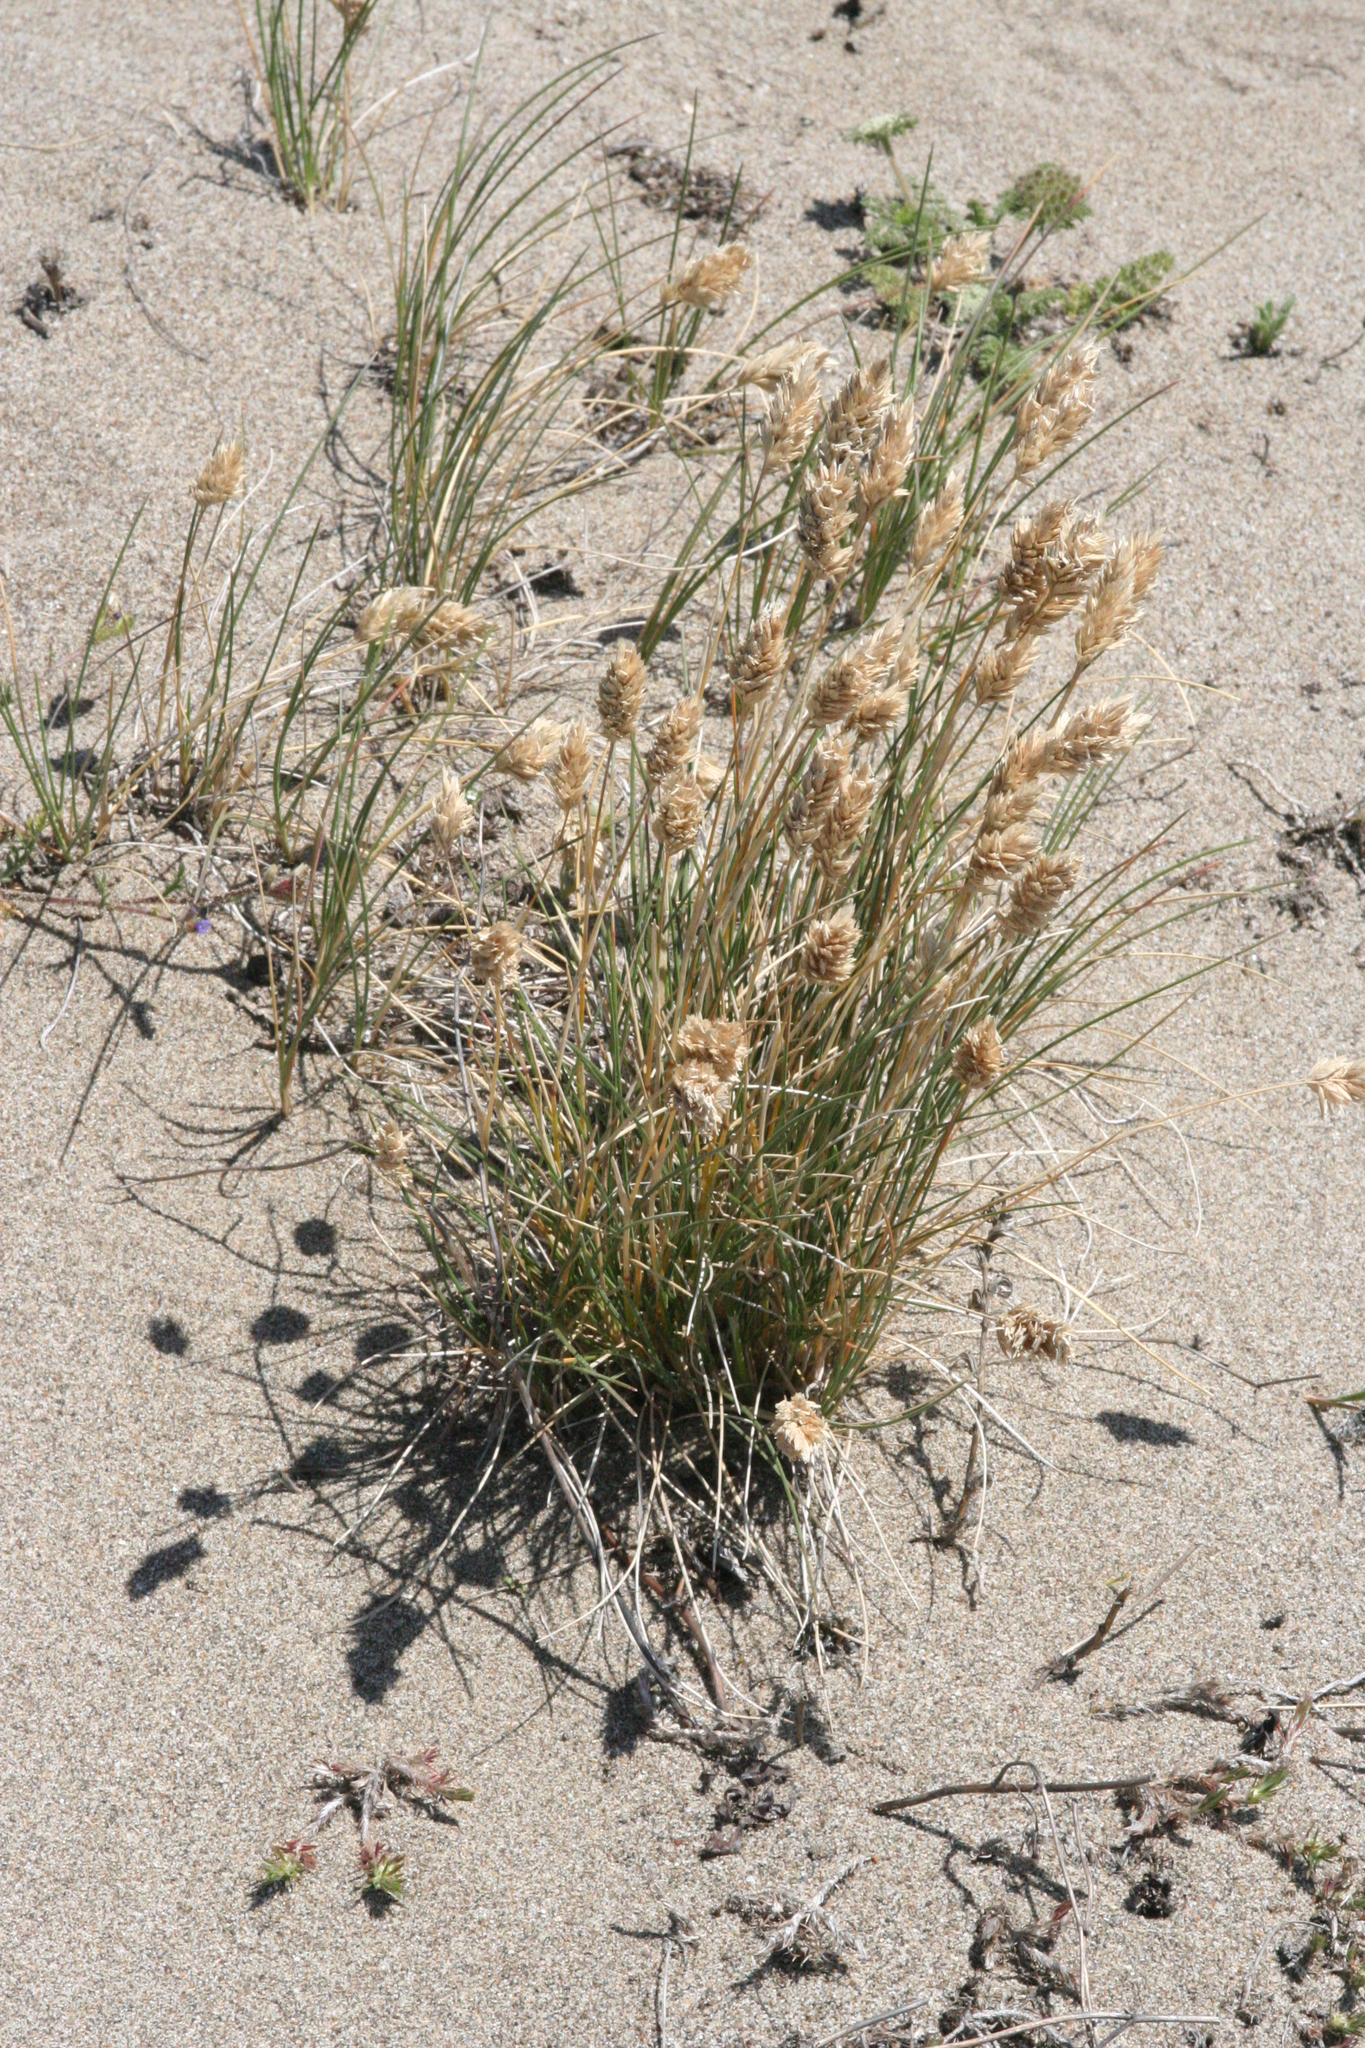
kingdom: Plantae
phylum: Tracheophyta
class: Liliopsida
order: Poales
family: Poaceae
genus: Poa
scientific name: Poa douglasii
